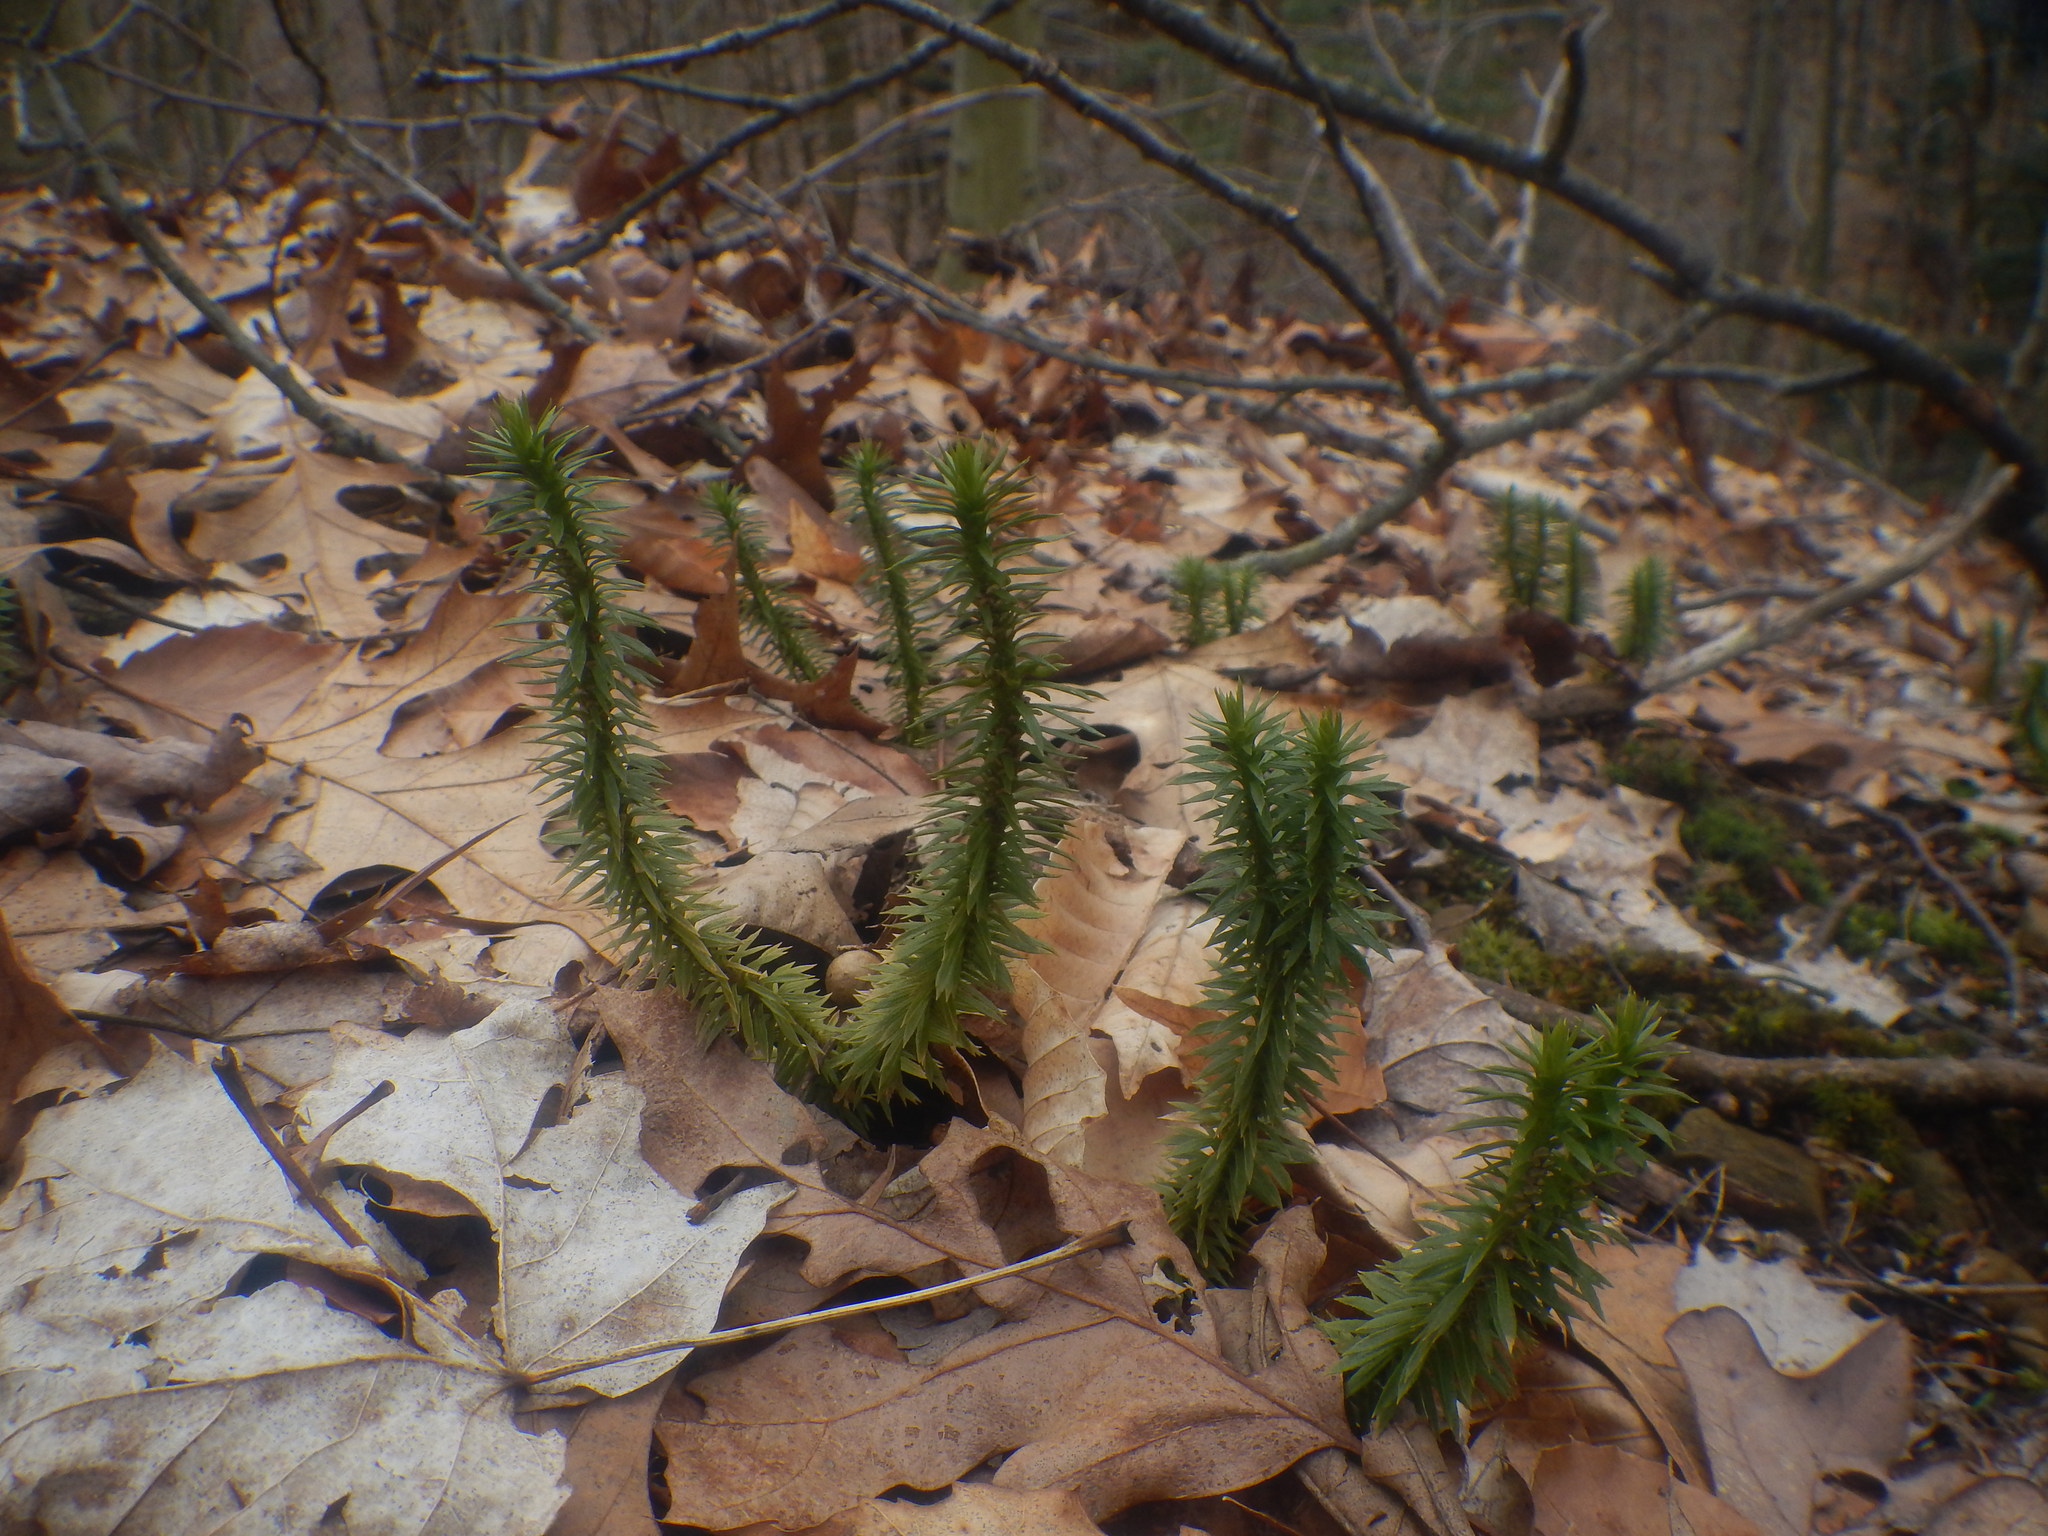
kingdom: Plantae
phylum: Tracheophyta
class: Lycopodiopsida
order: Lycopodiales
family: Lycopodiaceae
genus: Huperzia
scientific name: Huperzia lucidula
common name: Shining clubmoss
